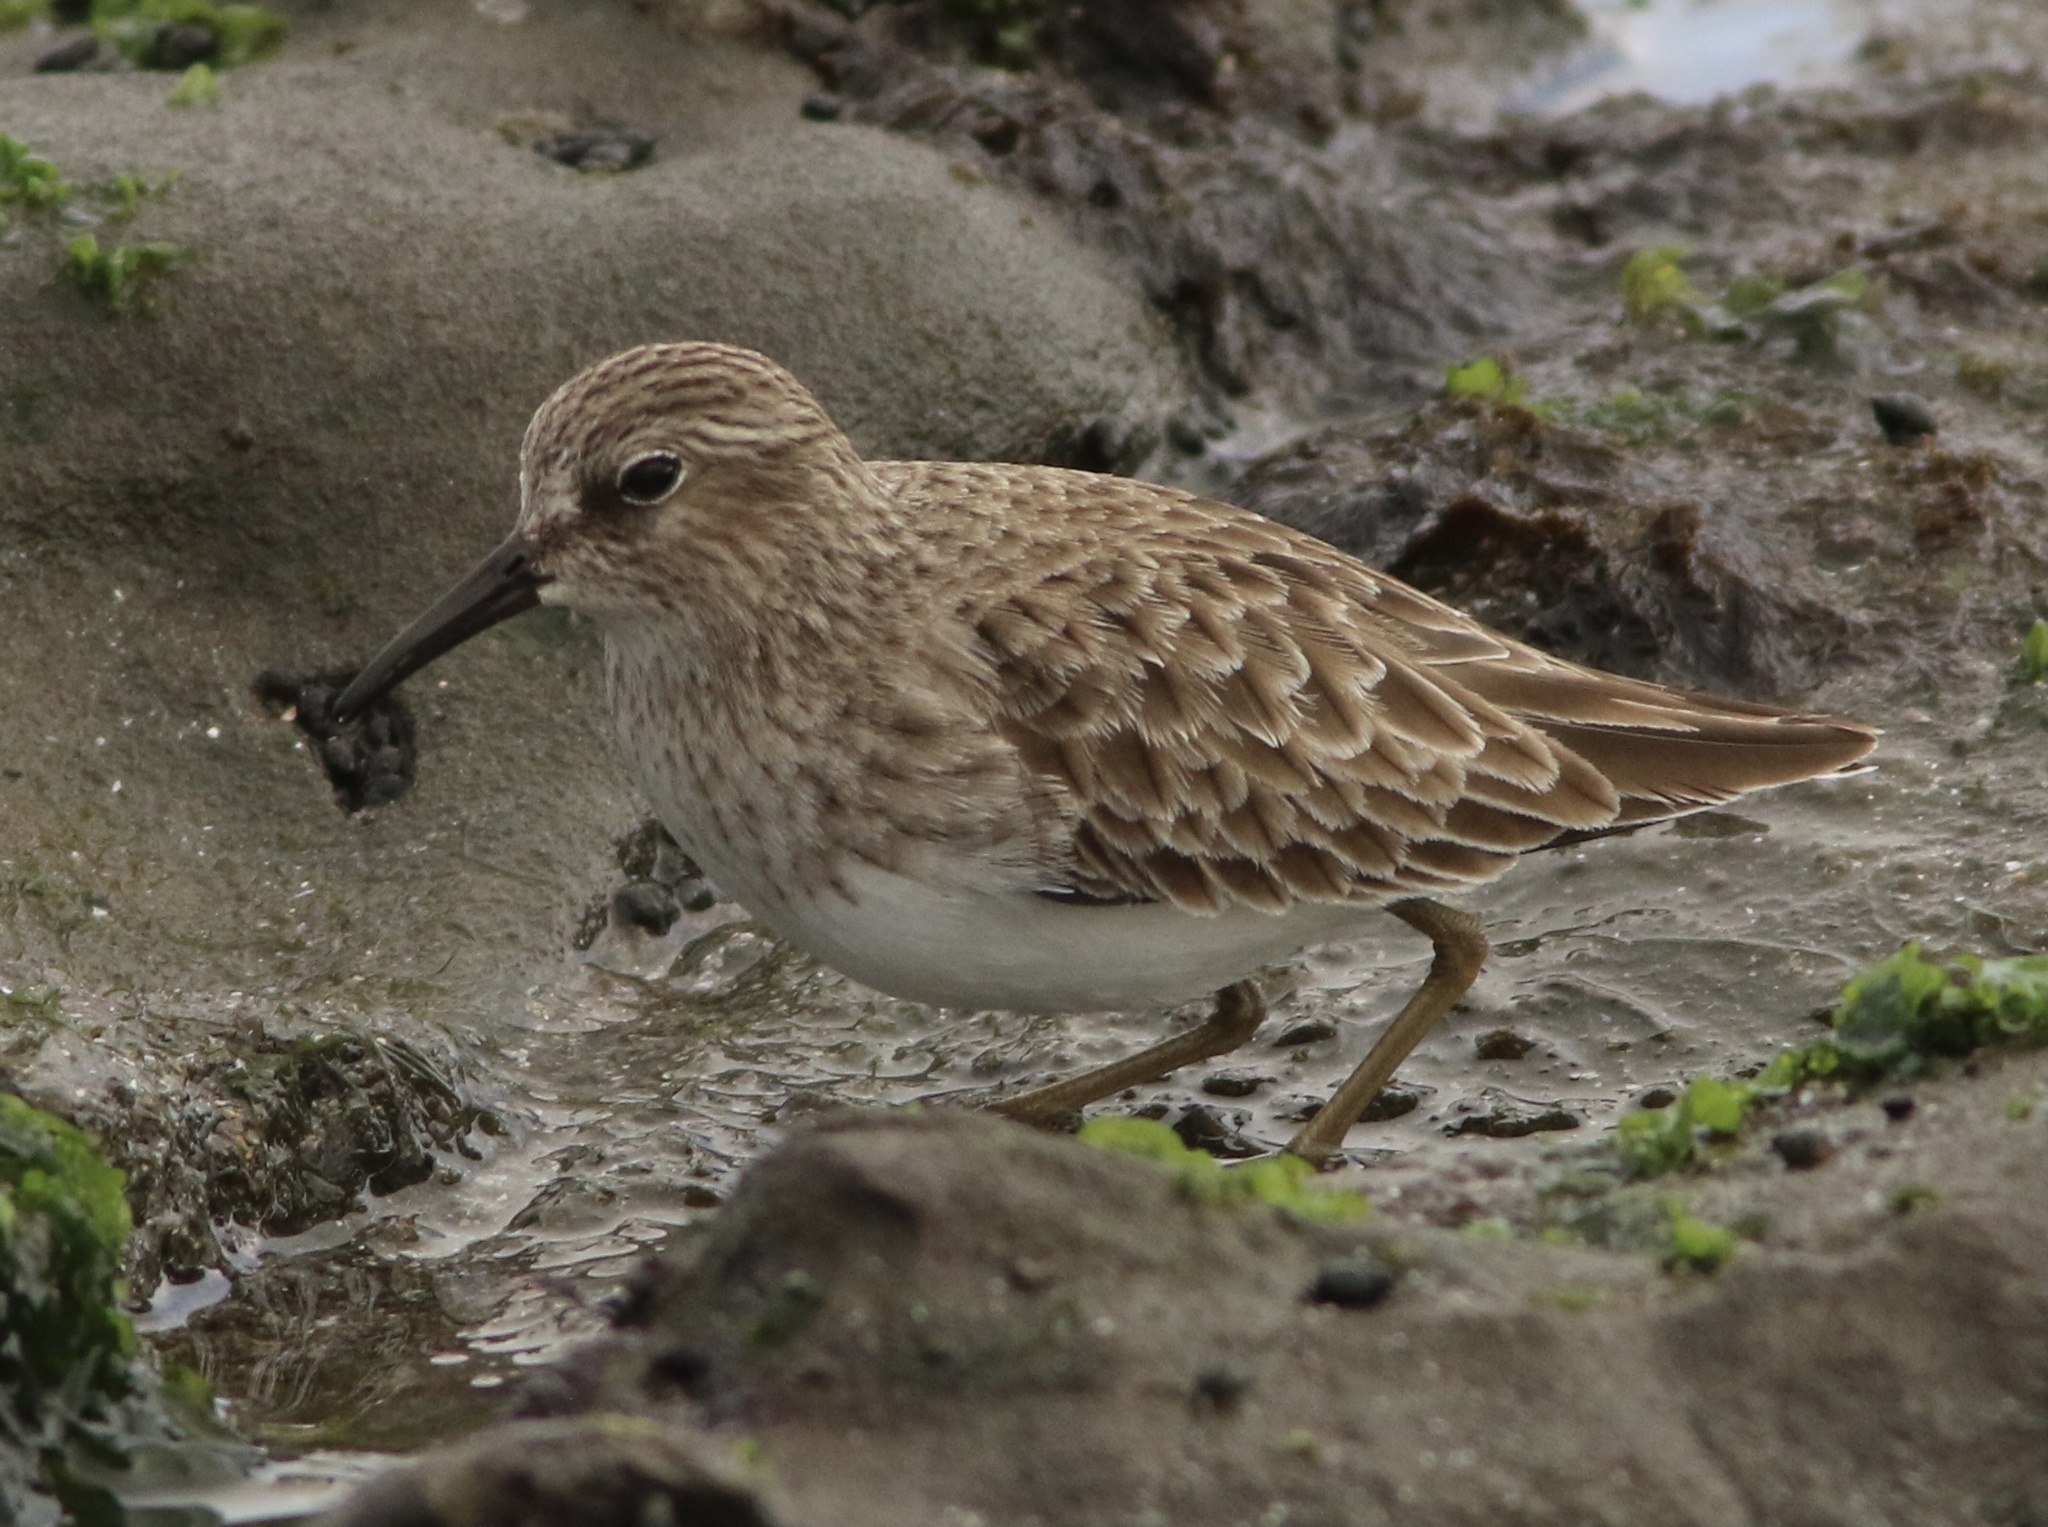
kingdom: Animalia
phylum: Chordata
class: Aves
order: Charadriiformes
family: Scolopacidae
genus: Calidris
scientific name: Calidris minutilla
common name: Least sandpiper
